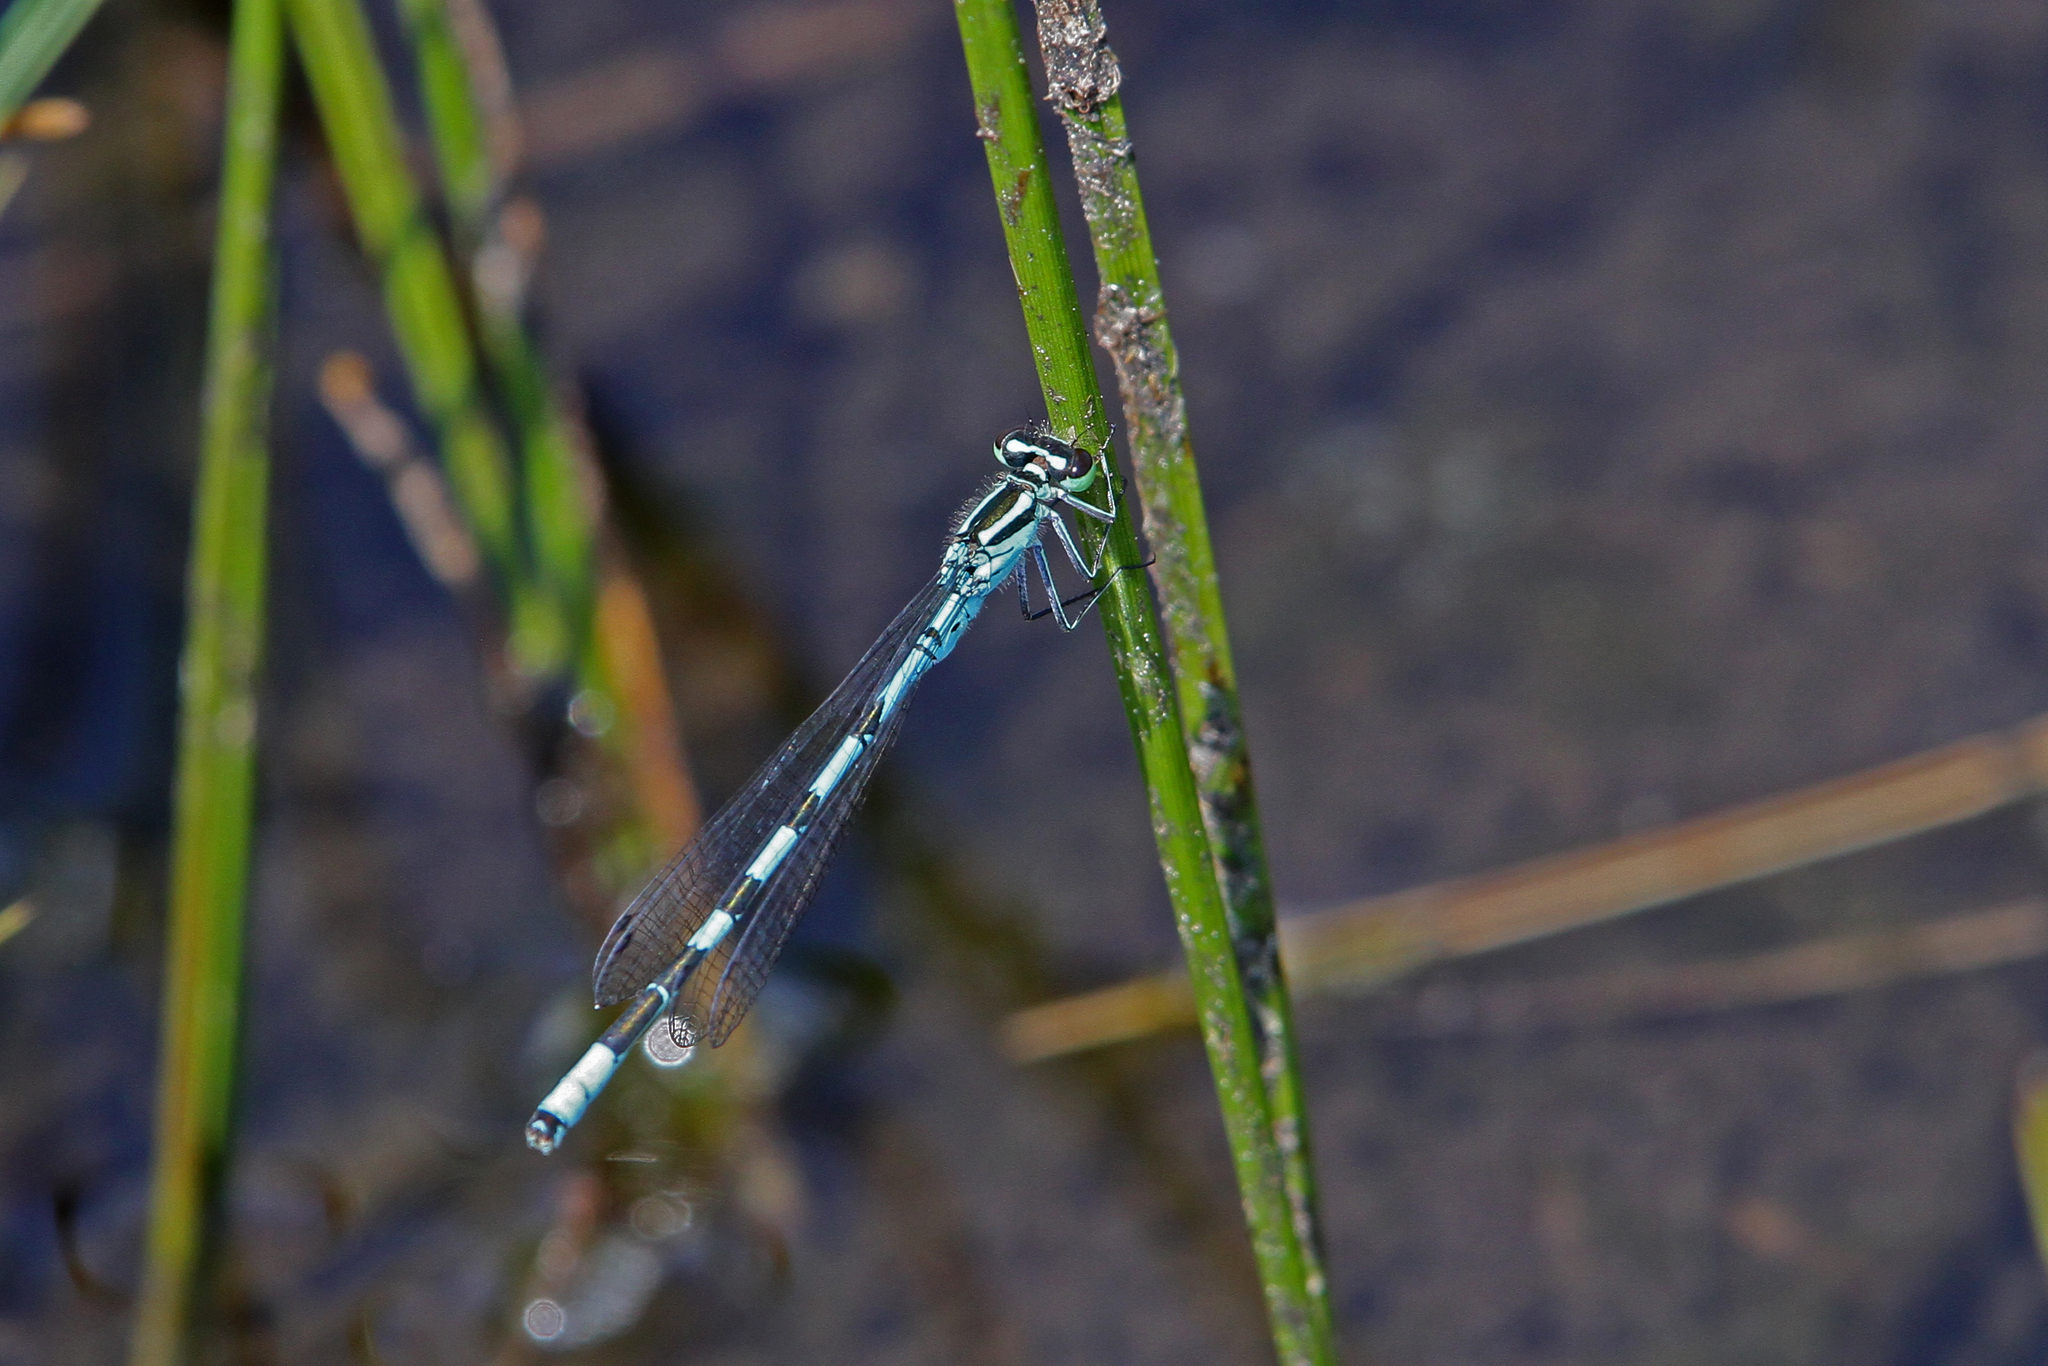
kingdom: Animalia
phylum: Arthropoda
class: Insecta
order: Odonata
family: Coenagrionidae
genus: Coenagrion
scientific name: Coenagrion hastulatum
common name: Spearhead bluet
